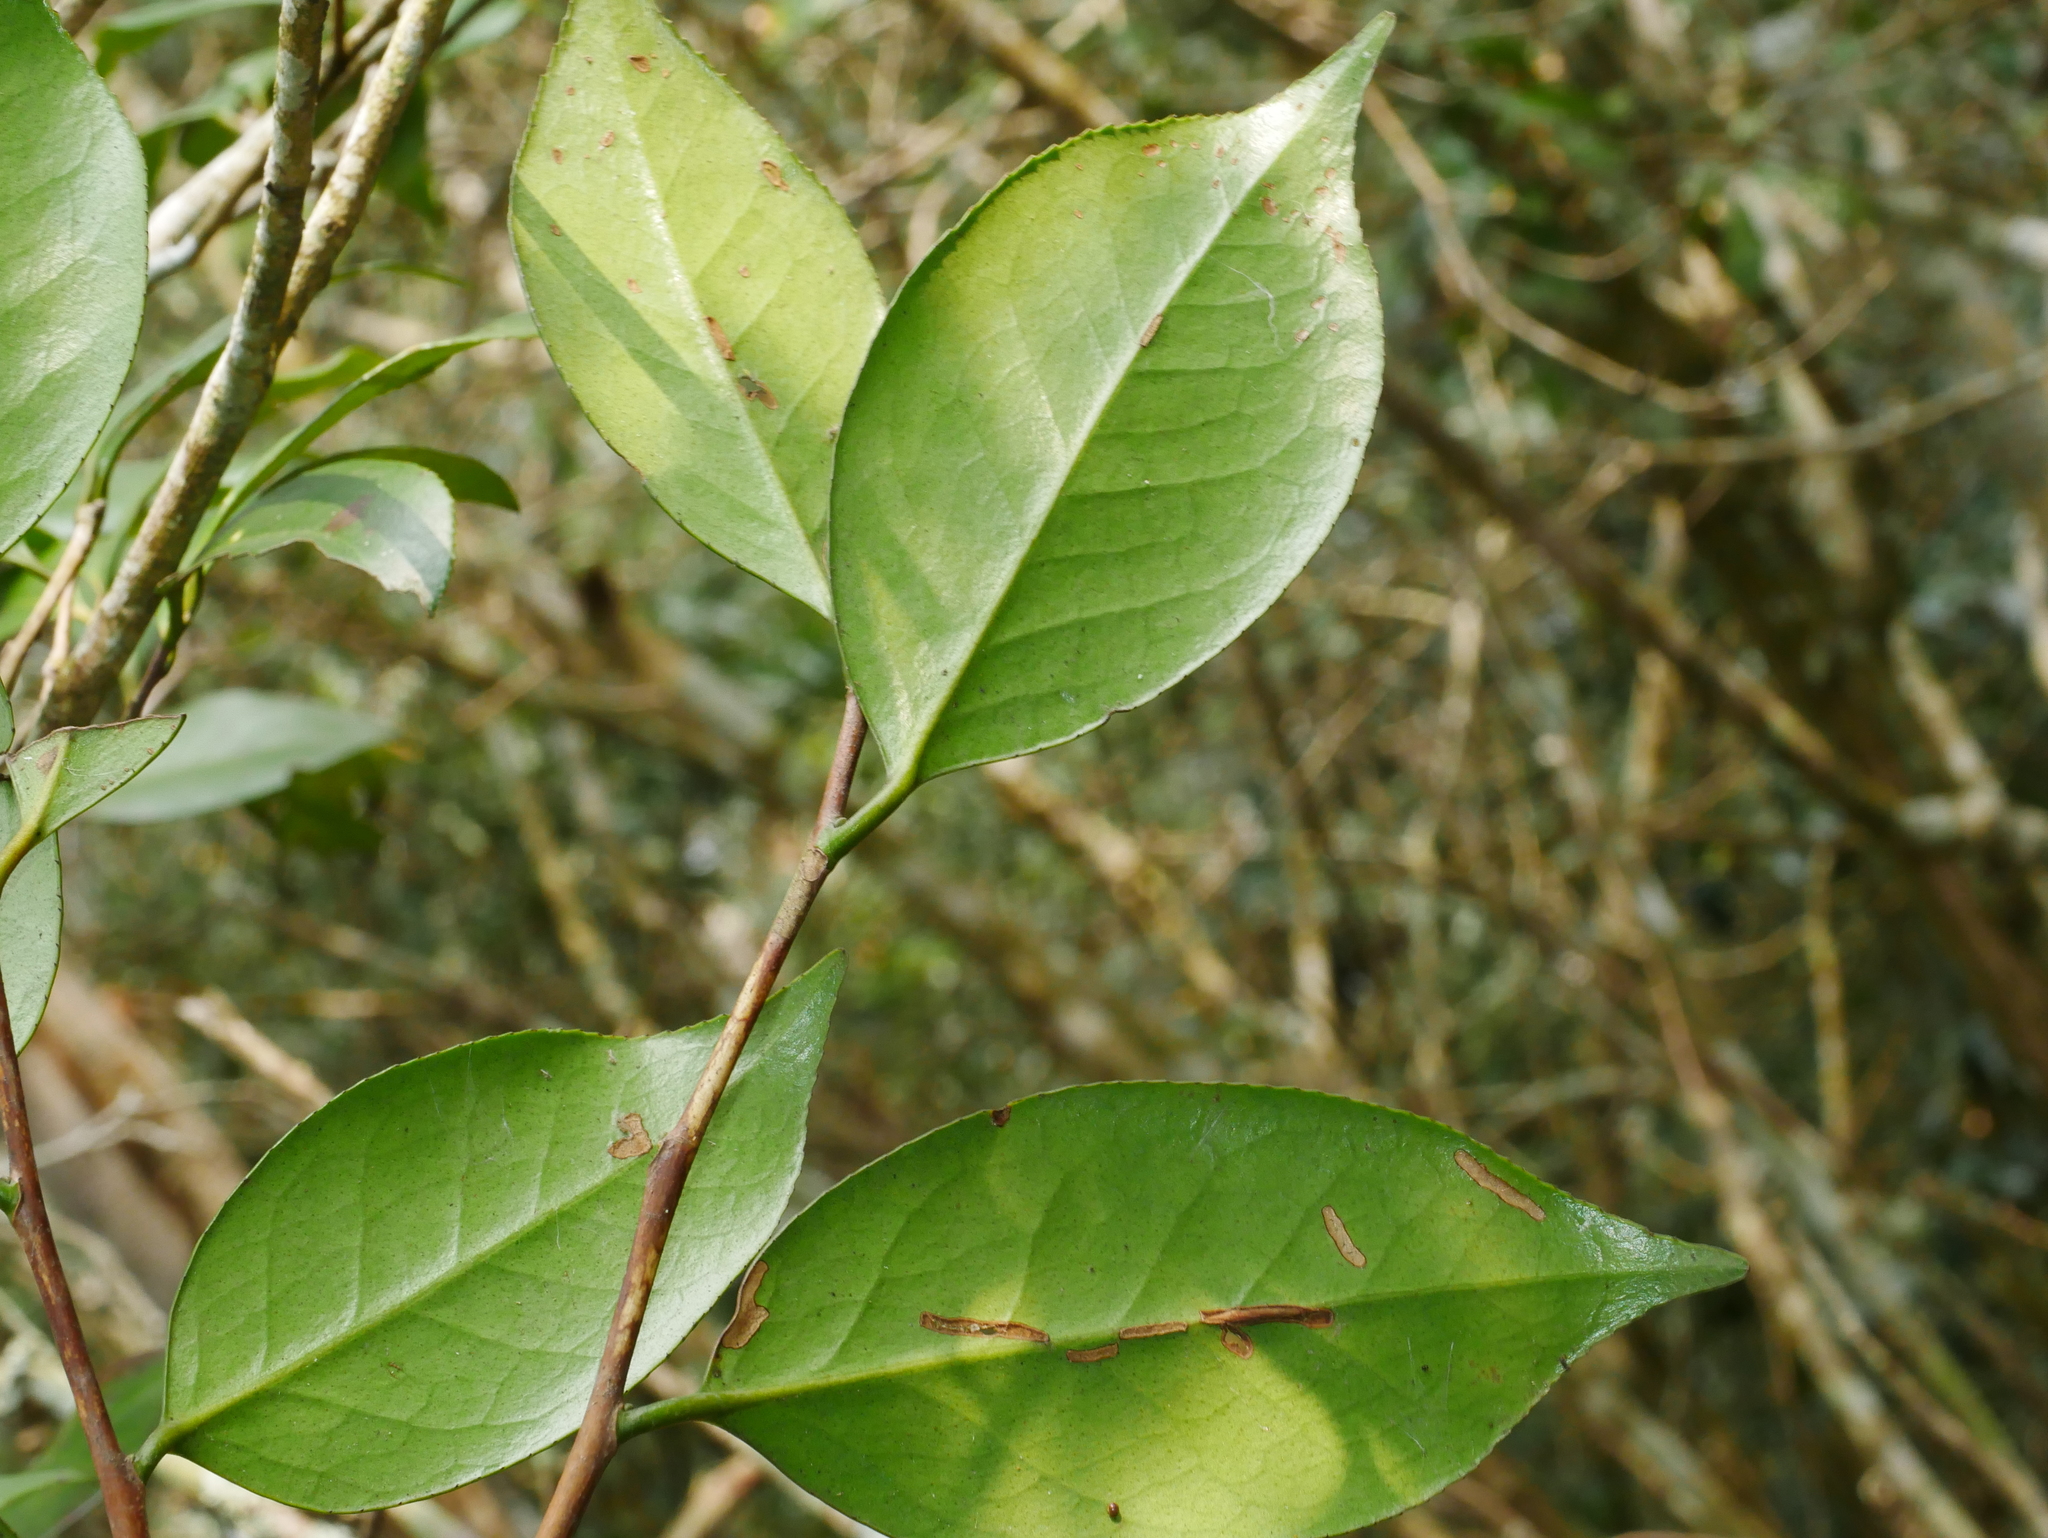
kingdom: Plantae
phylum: Tracheophyta
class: Magnoliopsida
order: Ericales
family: Theaceae
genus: Camellia
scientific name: Camellia japonica
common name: Camellia
